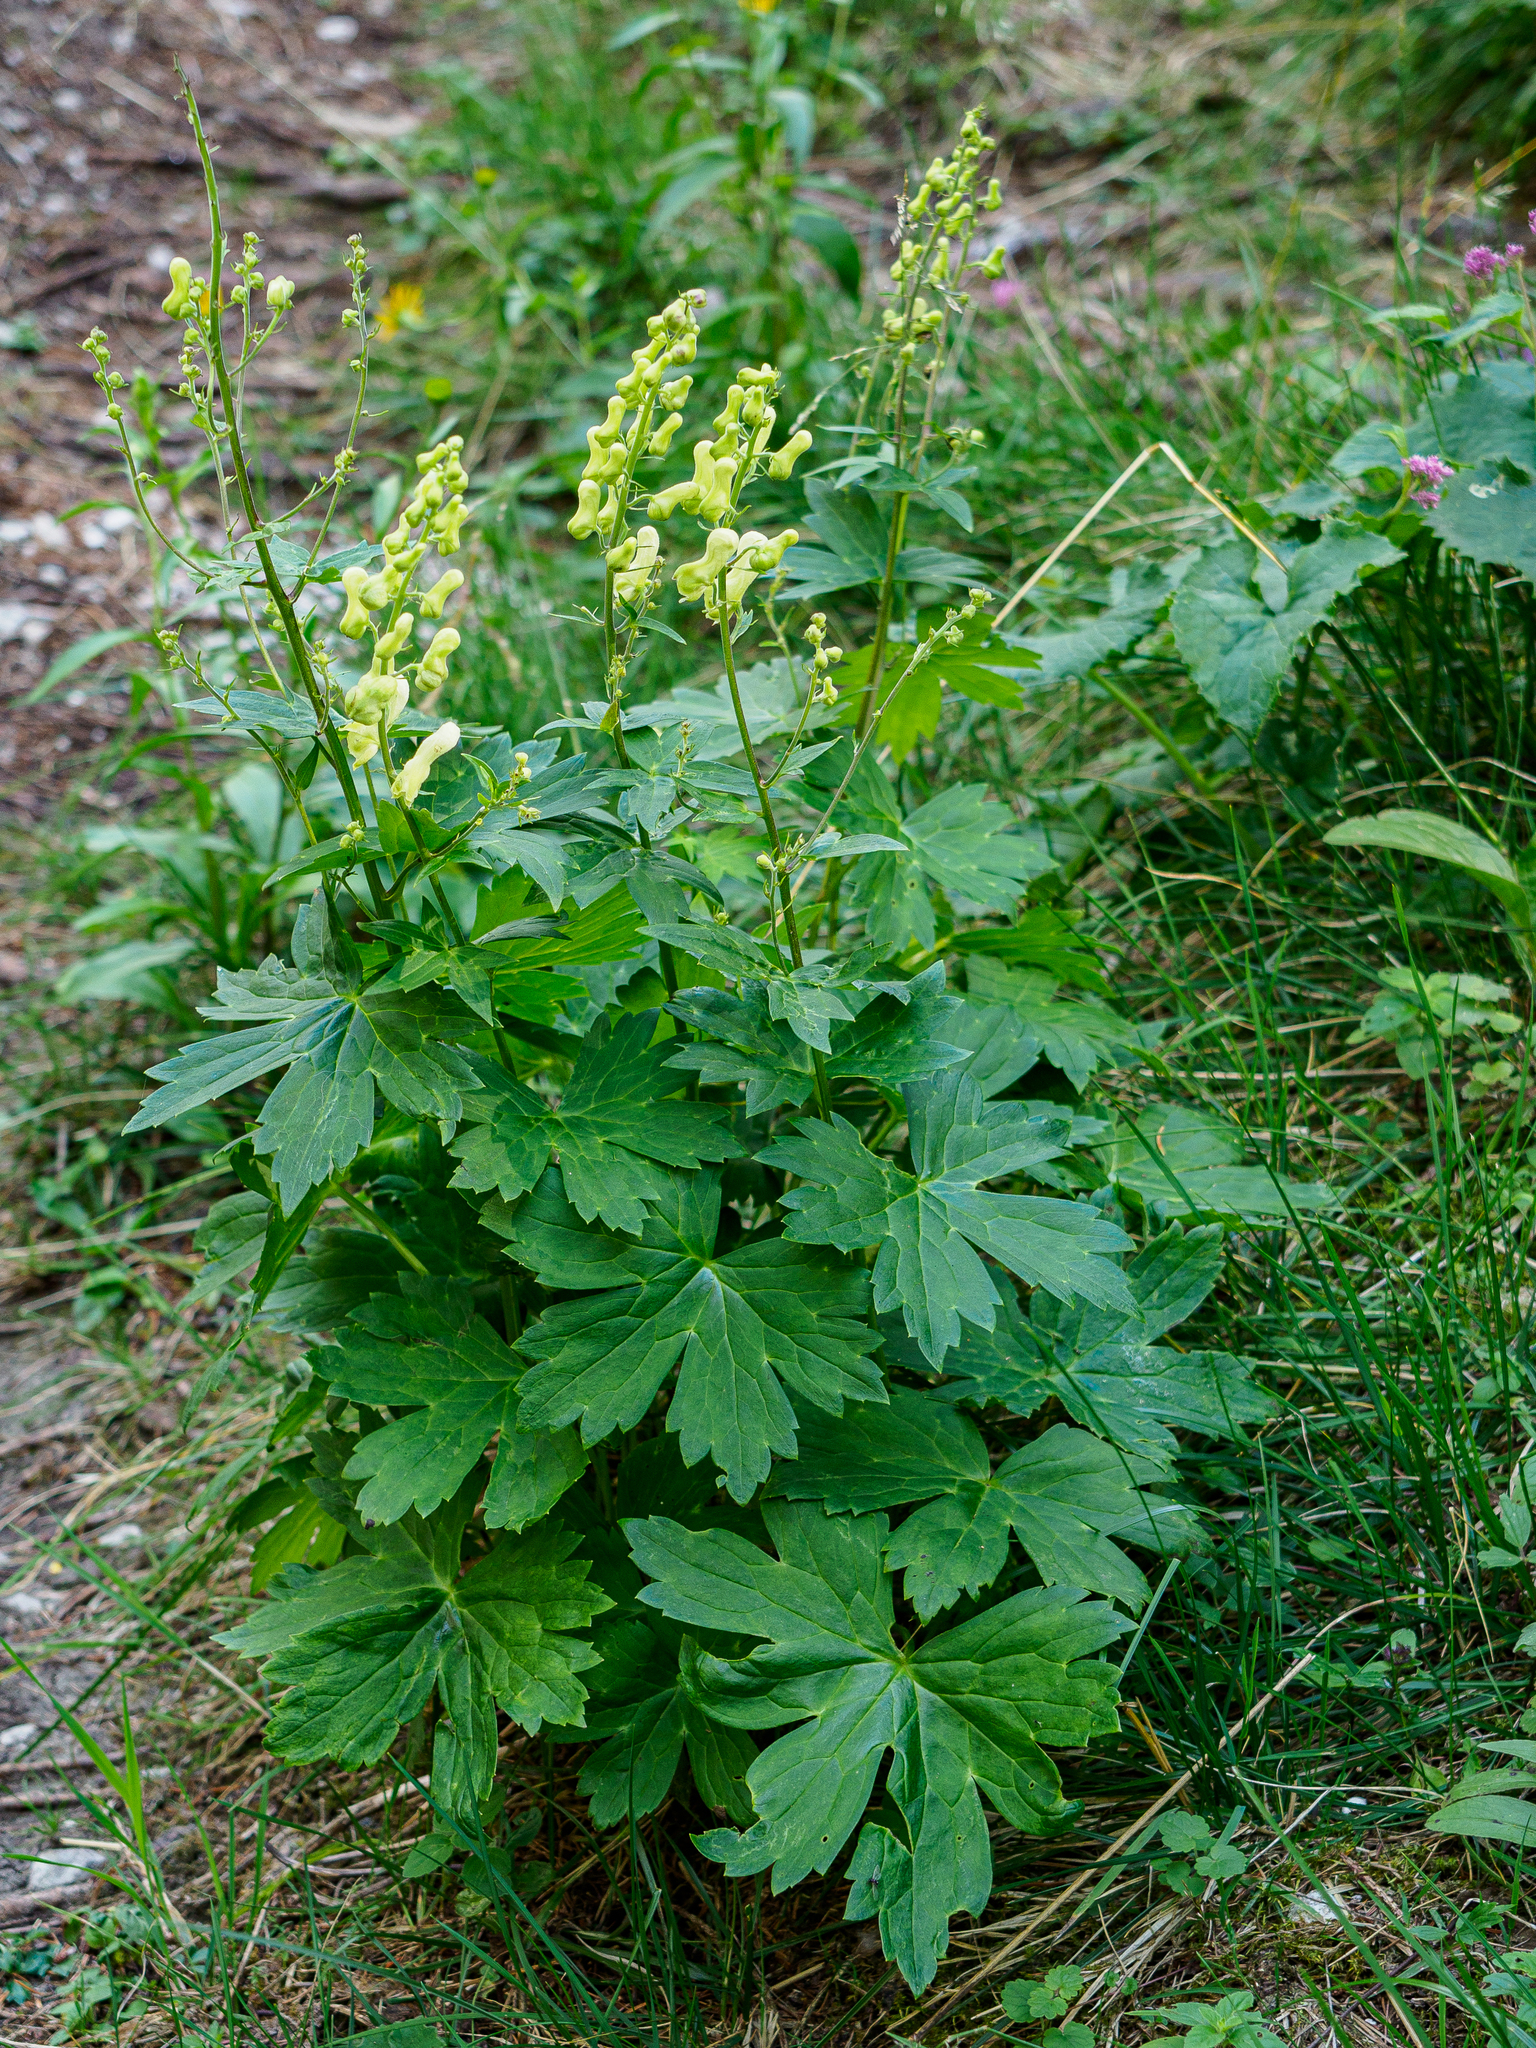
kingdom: Plantae
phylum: Tracheophyta
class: Magnoliopsida
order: Ranunculales
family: Ranunculaceae
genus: Aconitum
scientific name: Aconitum lycoctonum
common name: Wolf's-bane
